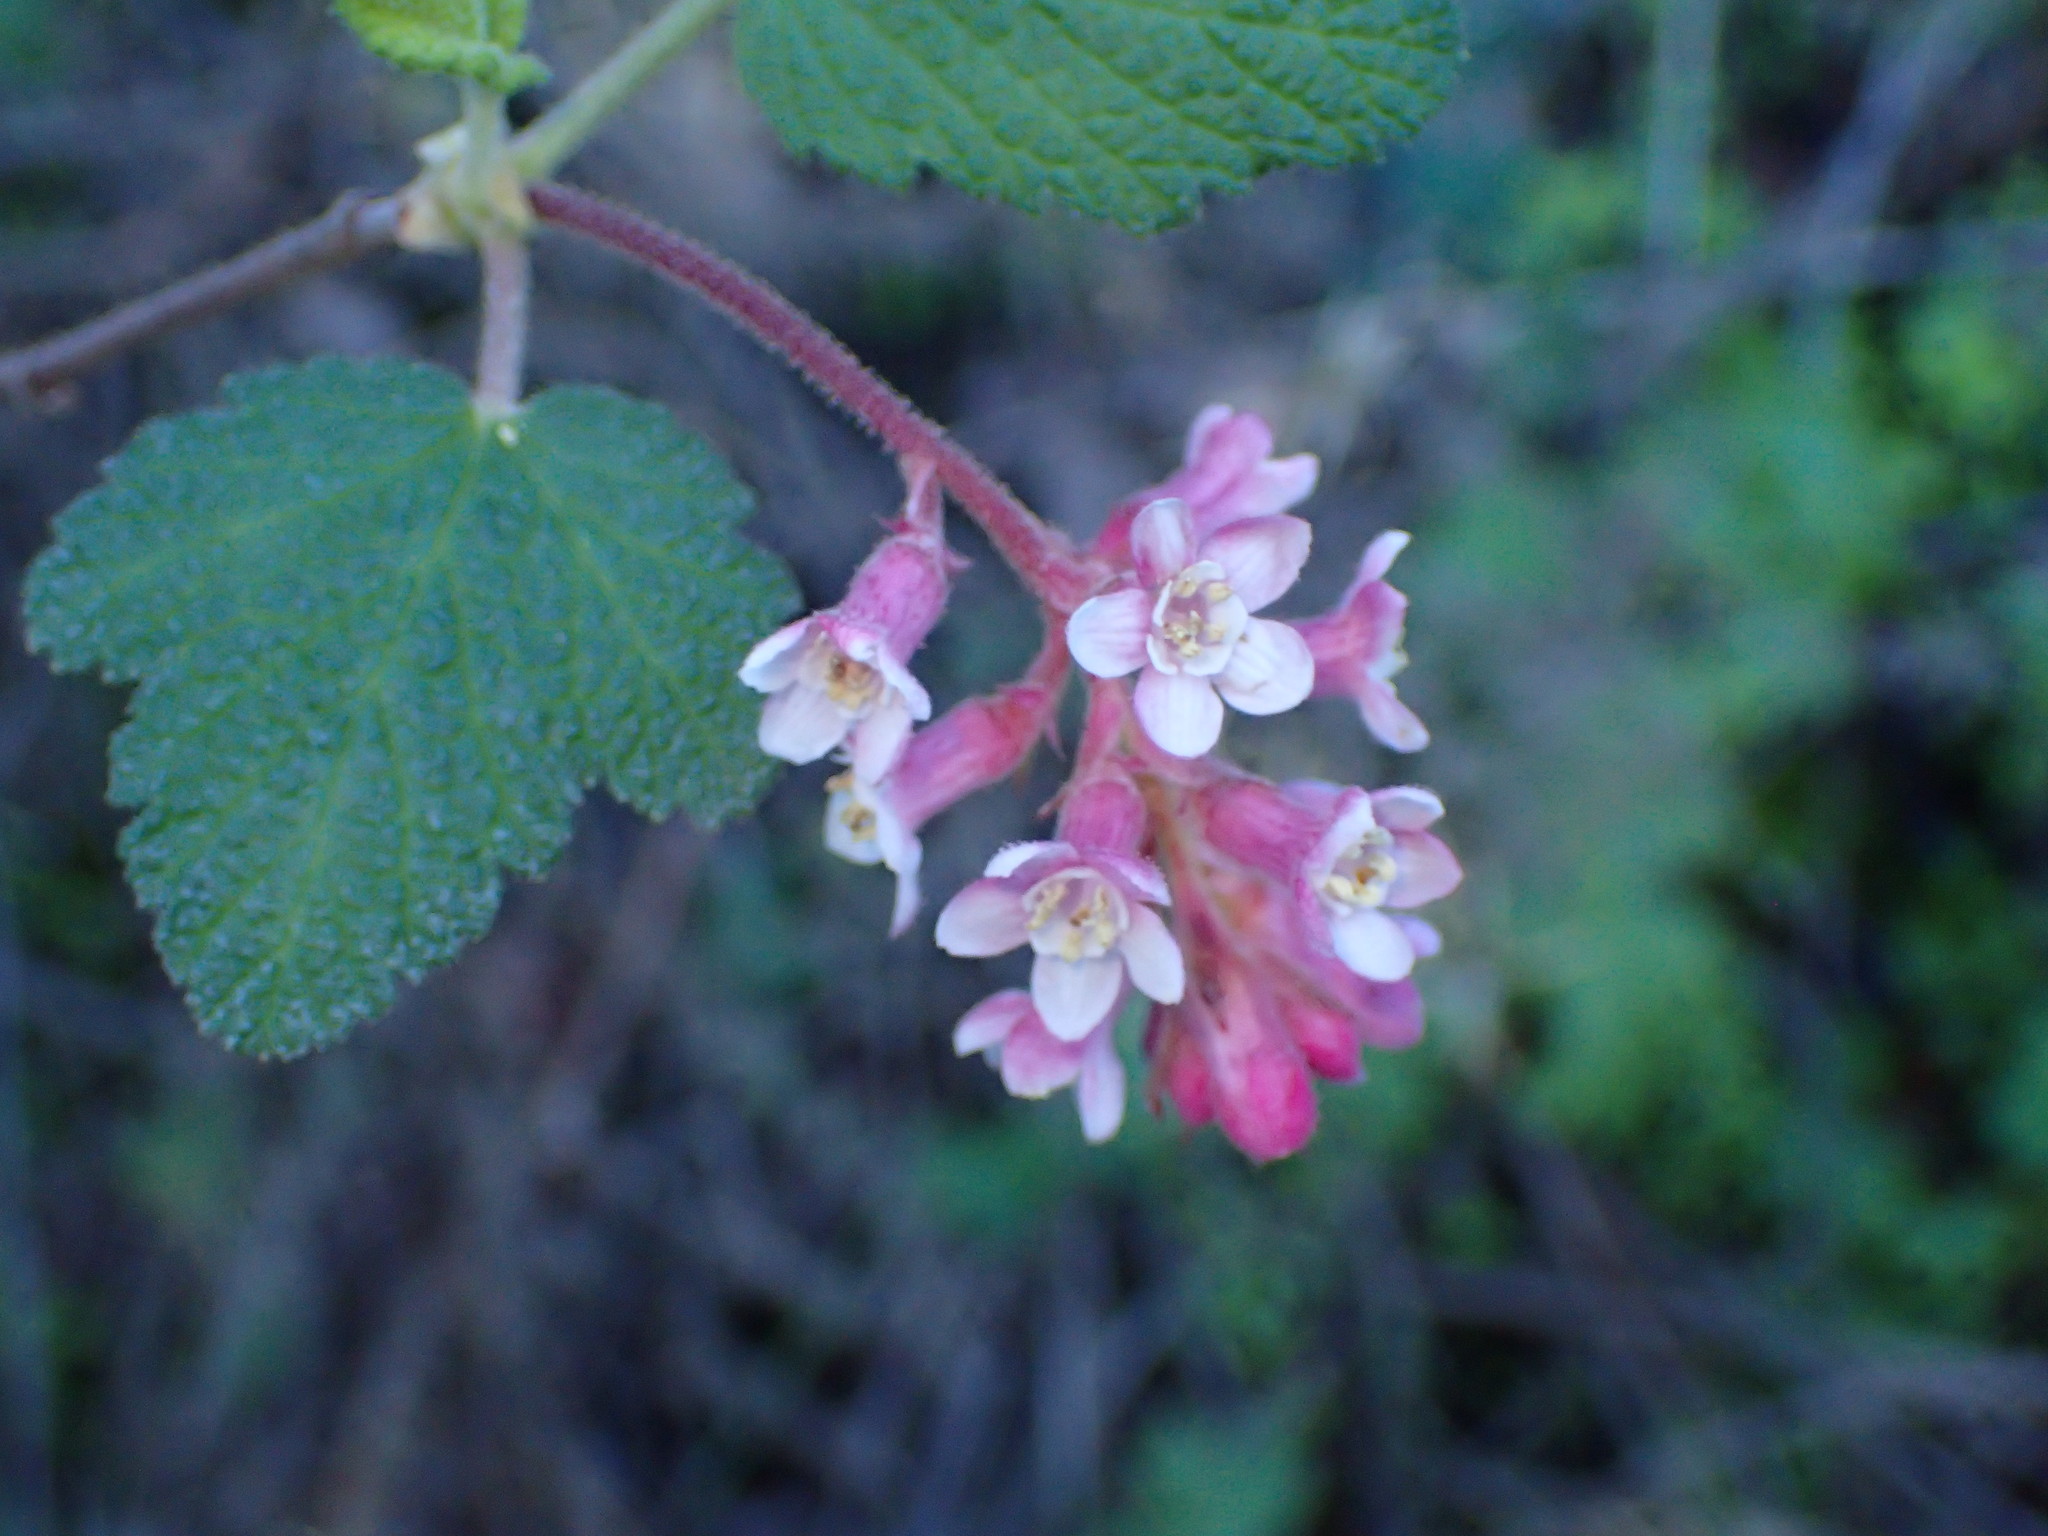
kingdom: Plantae
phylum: Tracheophyta
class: Magnoliopsida
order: Saxifragales
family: Grossulariaceae
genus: Ribes
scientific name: Ribes malvaceum
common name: Chaparral currant
